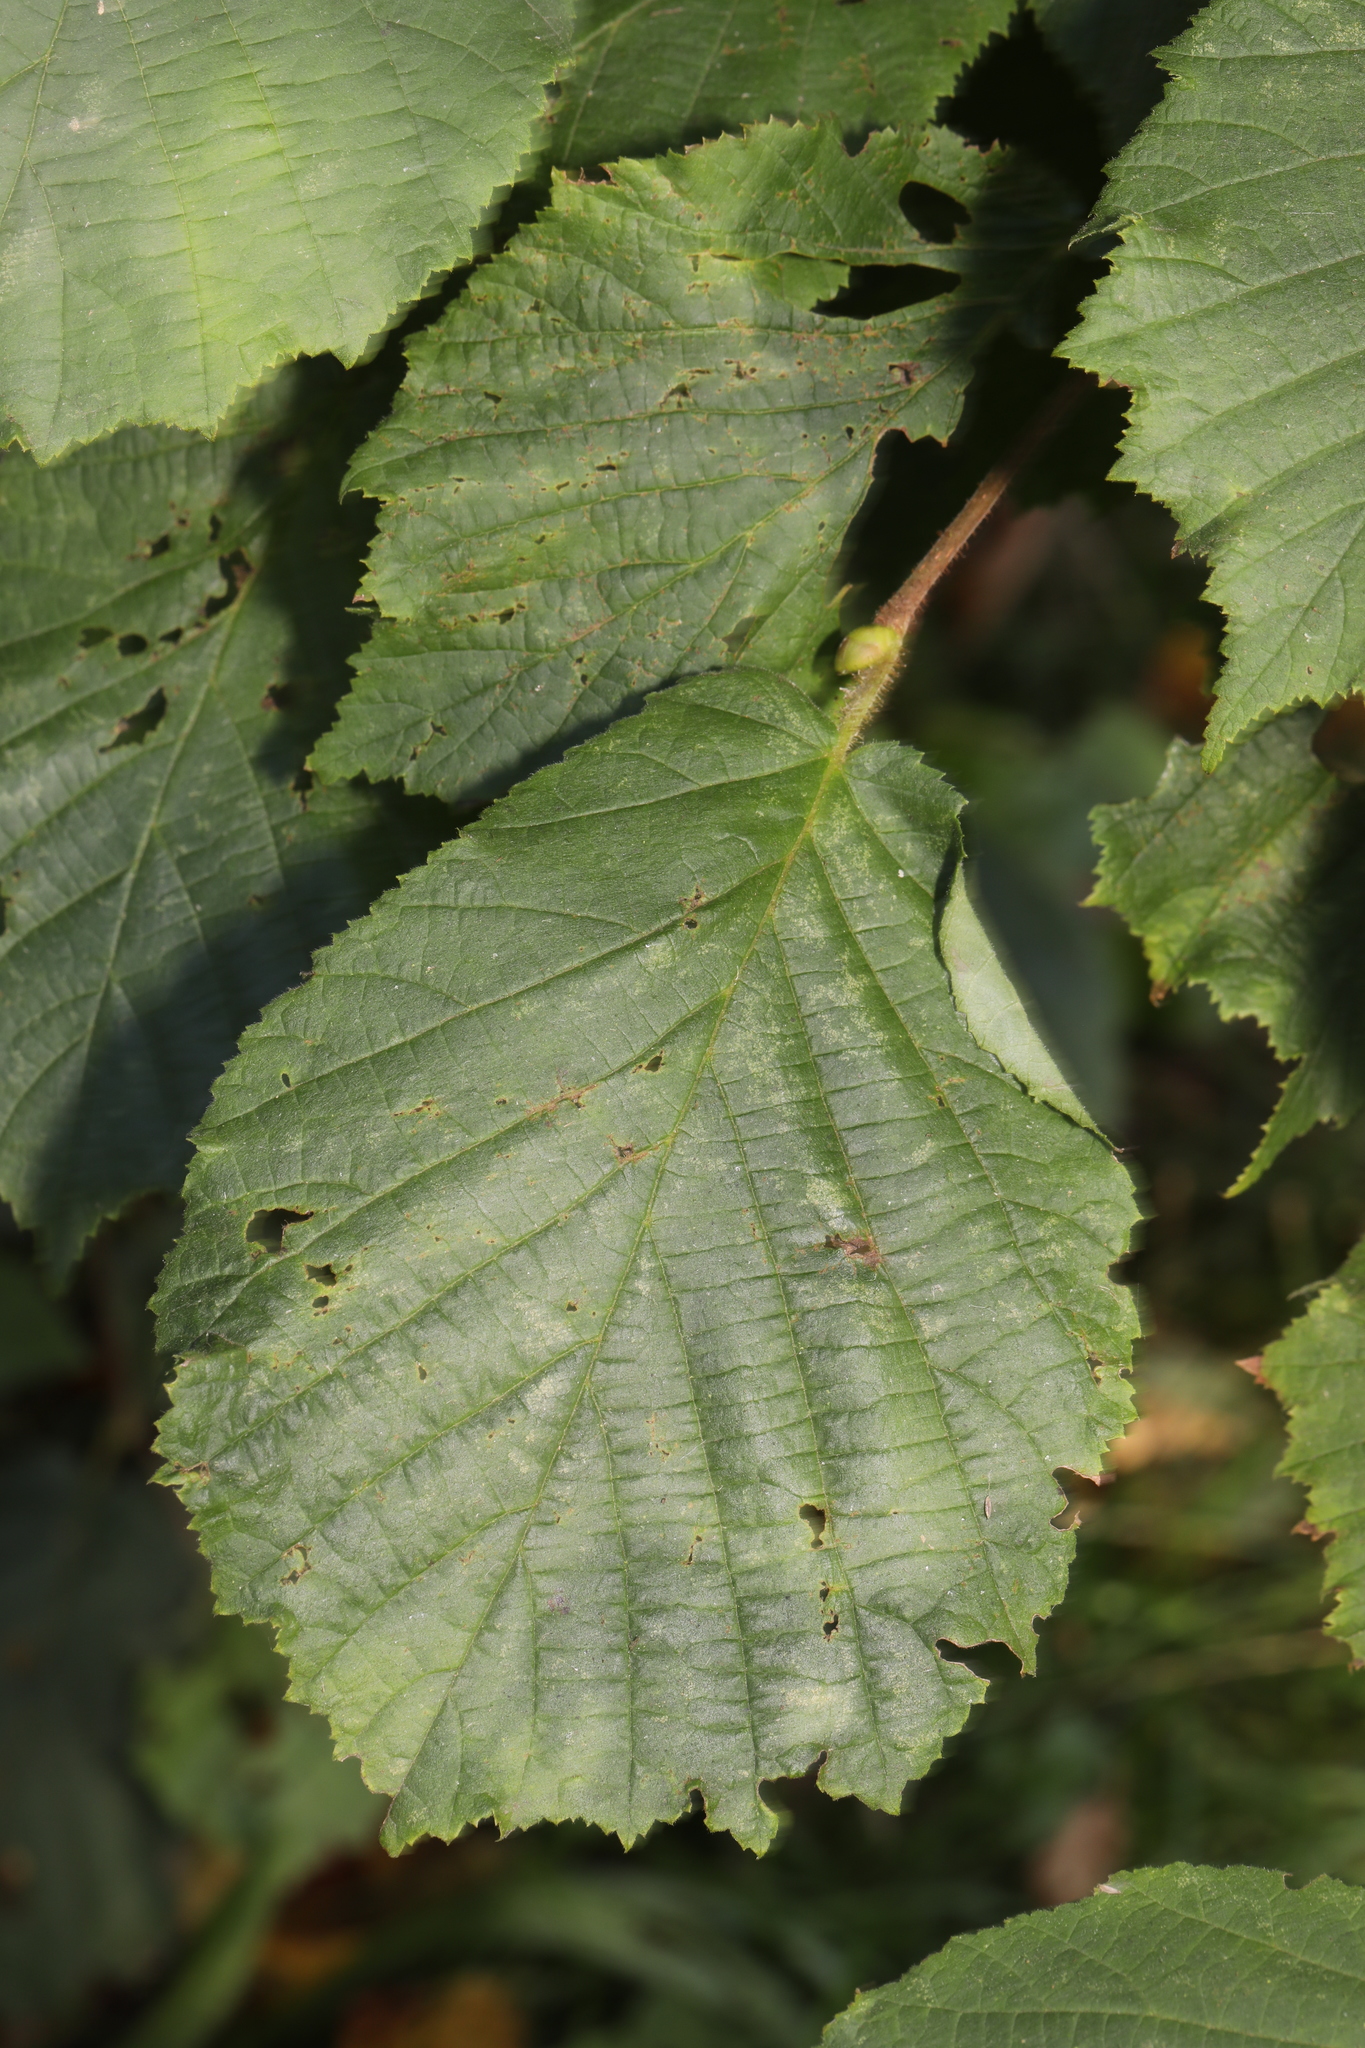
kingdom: Plantae
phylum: Tracheophyta
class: Magnoliopsida
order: Fagales
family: Betulaceae
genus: Corylus
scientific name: Corylus avellana
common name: European hazel
